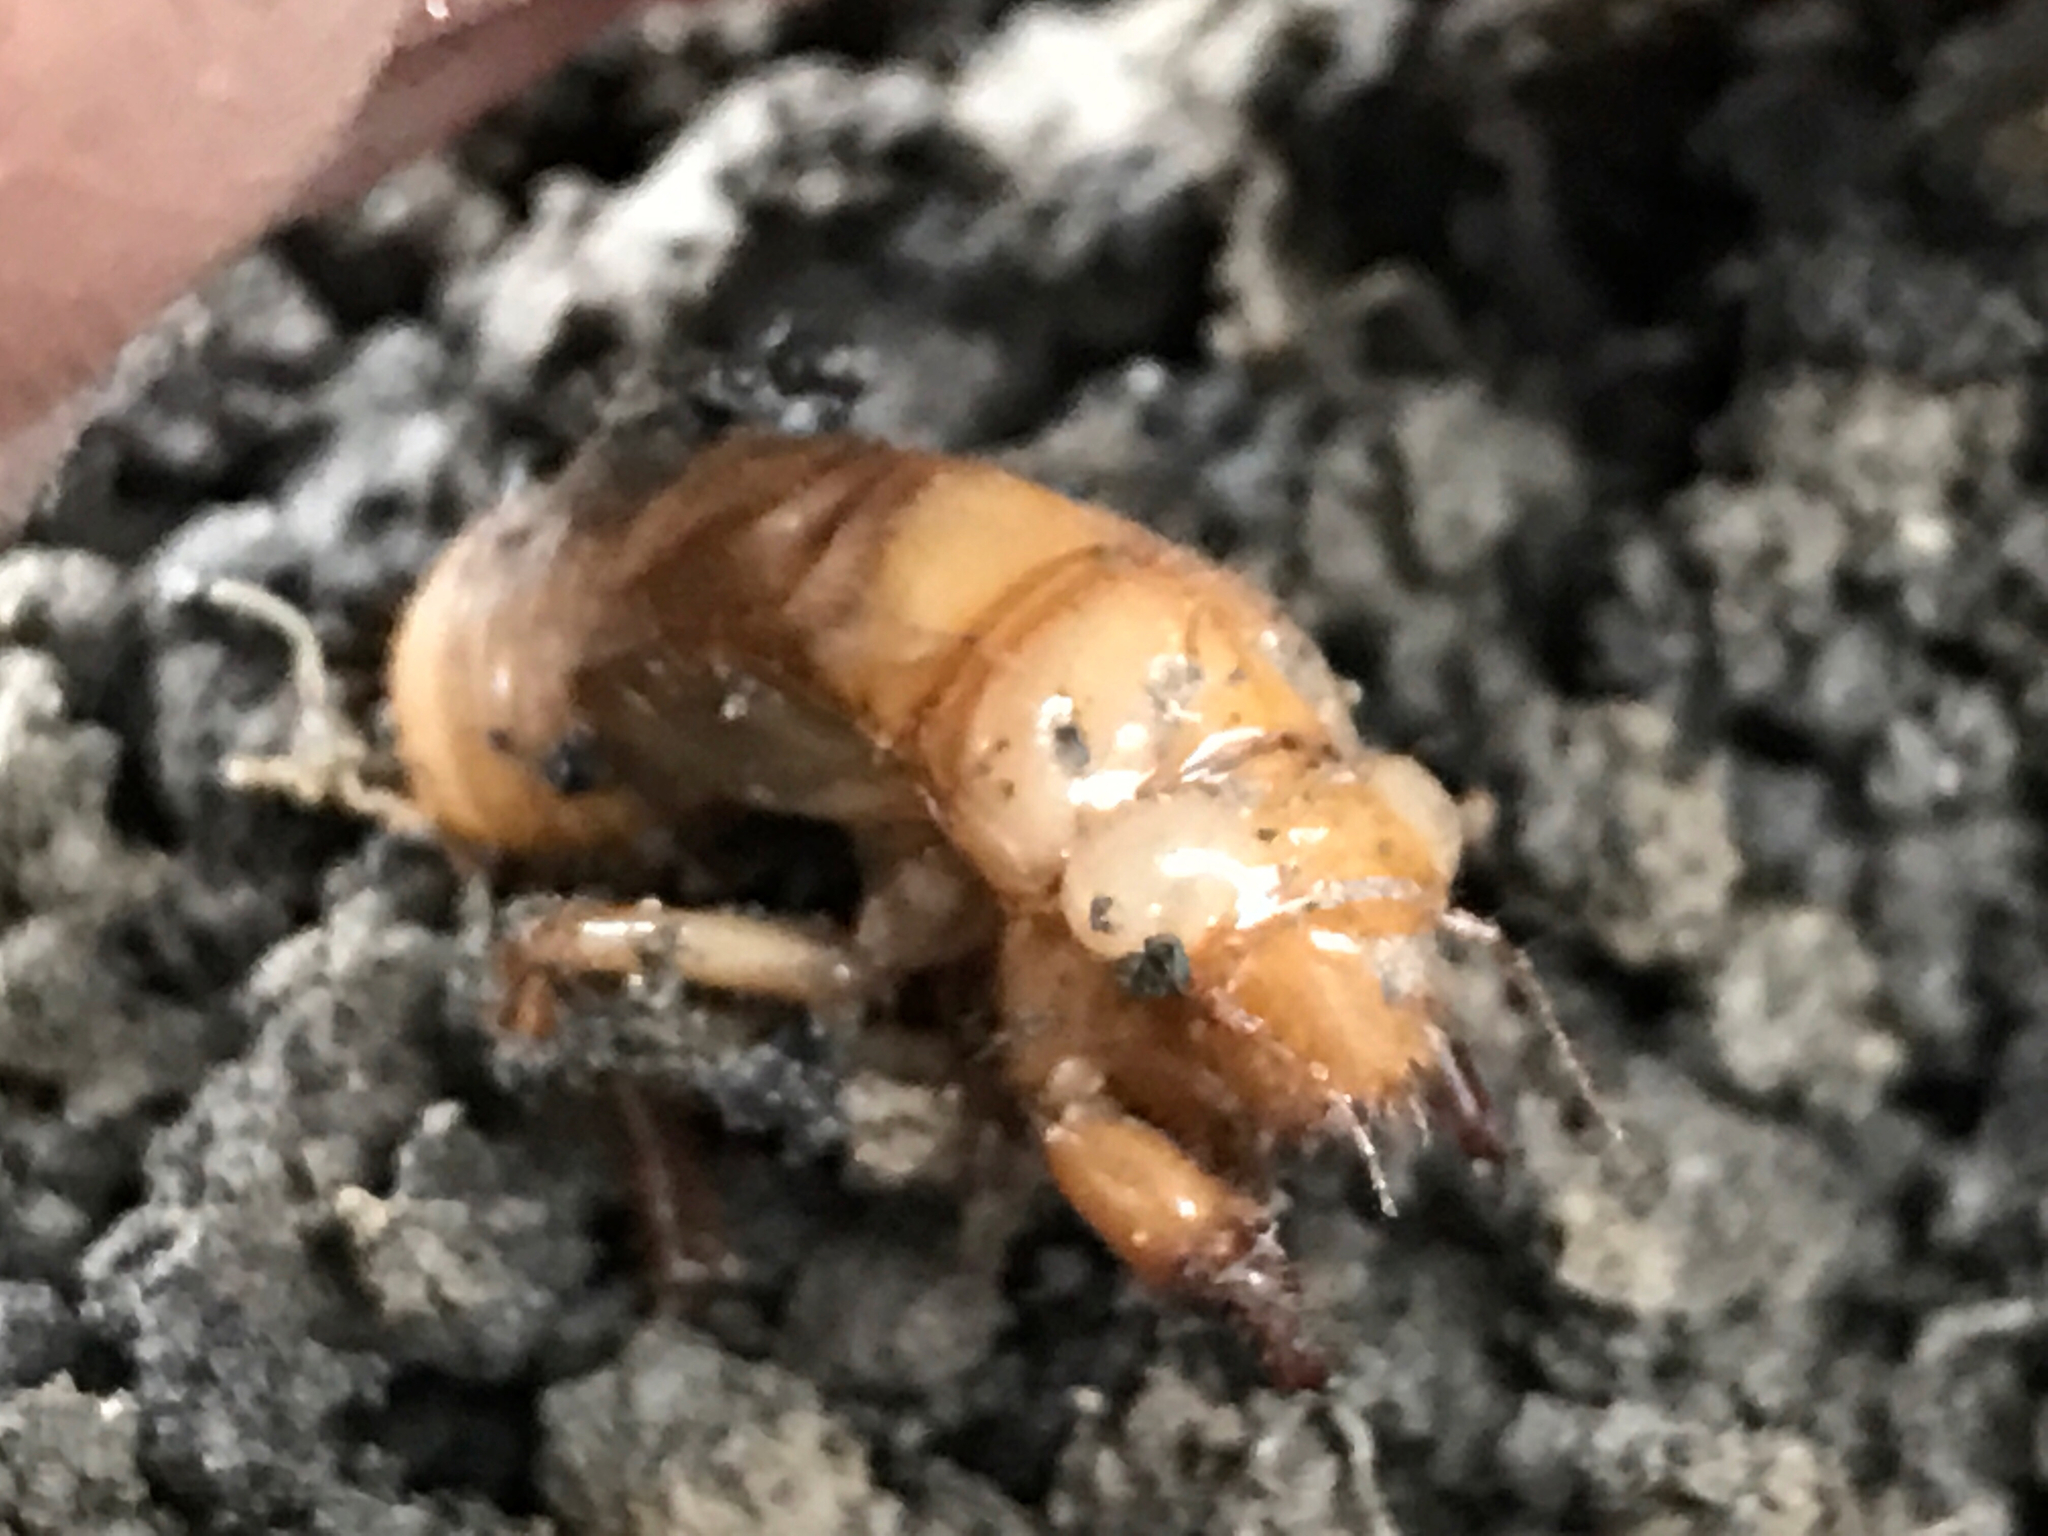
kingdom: Animalia
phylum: Arthropoda
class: Insecta
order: Hemiptera
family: Cicadidae
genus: Magicicada
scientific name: Magicicada
